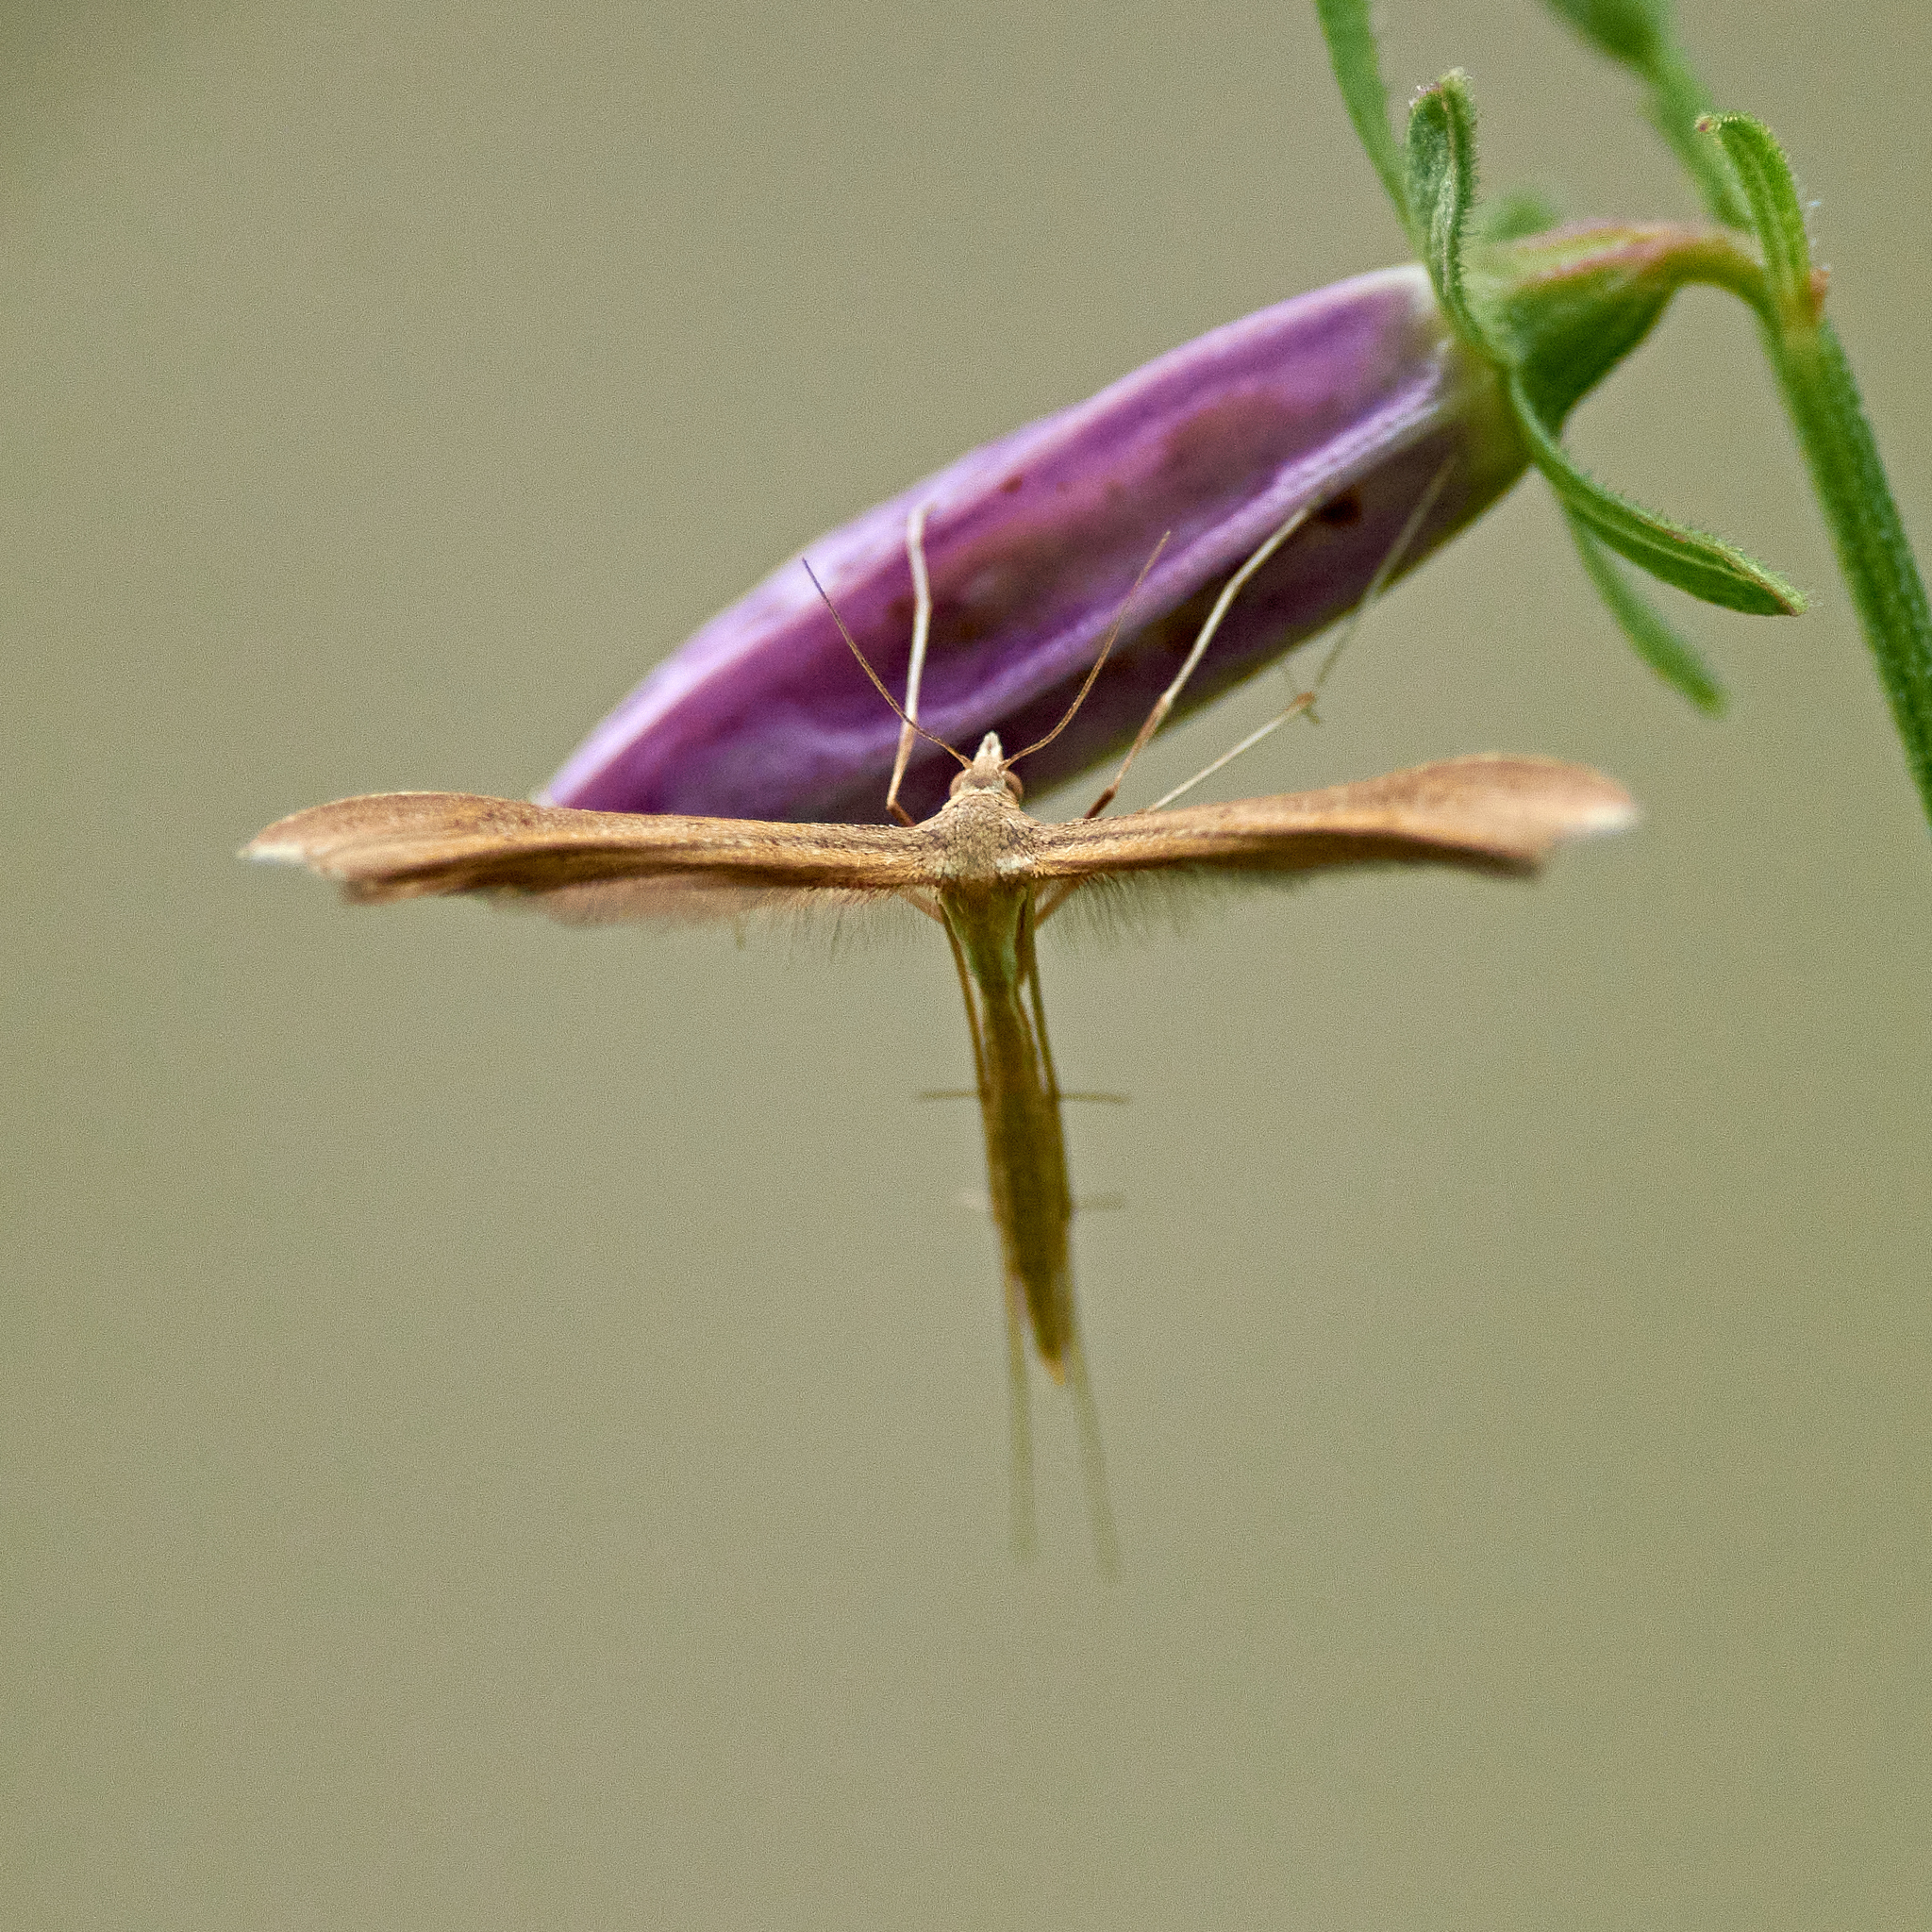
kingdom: Animalia
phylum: Arthropoda
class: Insecta
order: Lepidoptera
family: Pterophoridae
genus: Stenoptilia
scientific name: Stenoptilia pterodactyla
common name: Brown plume
